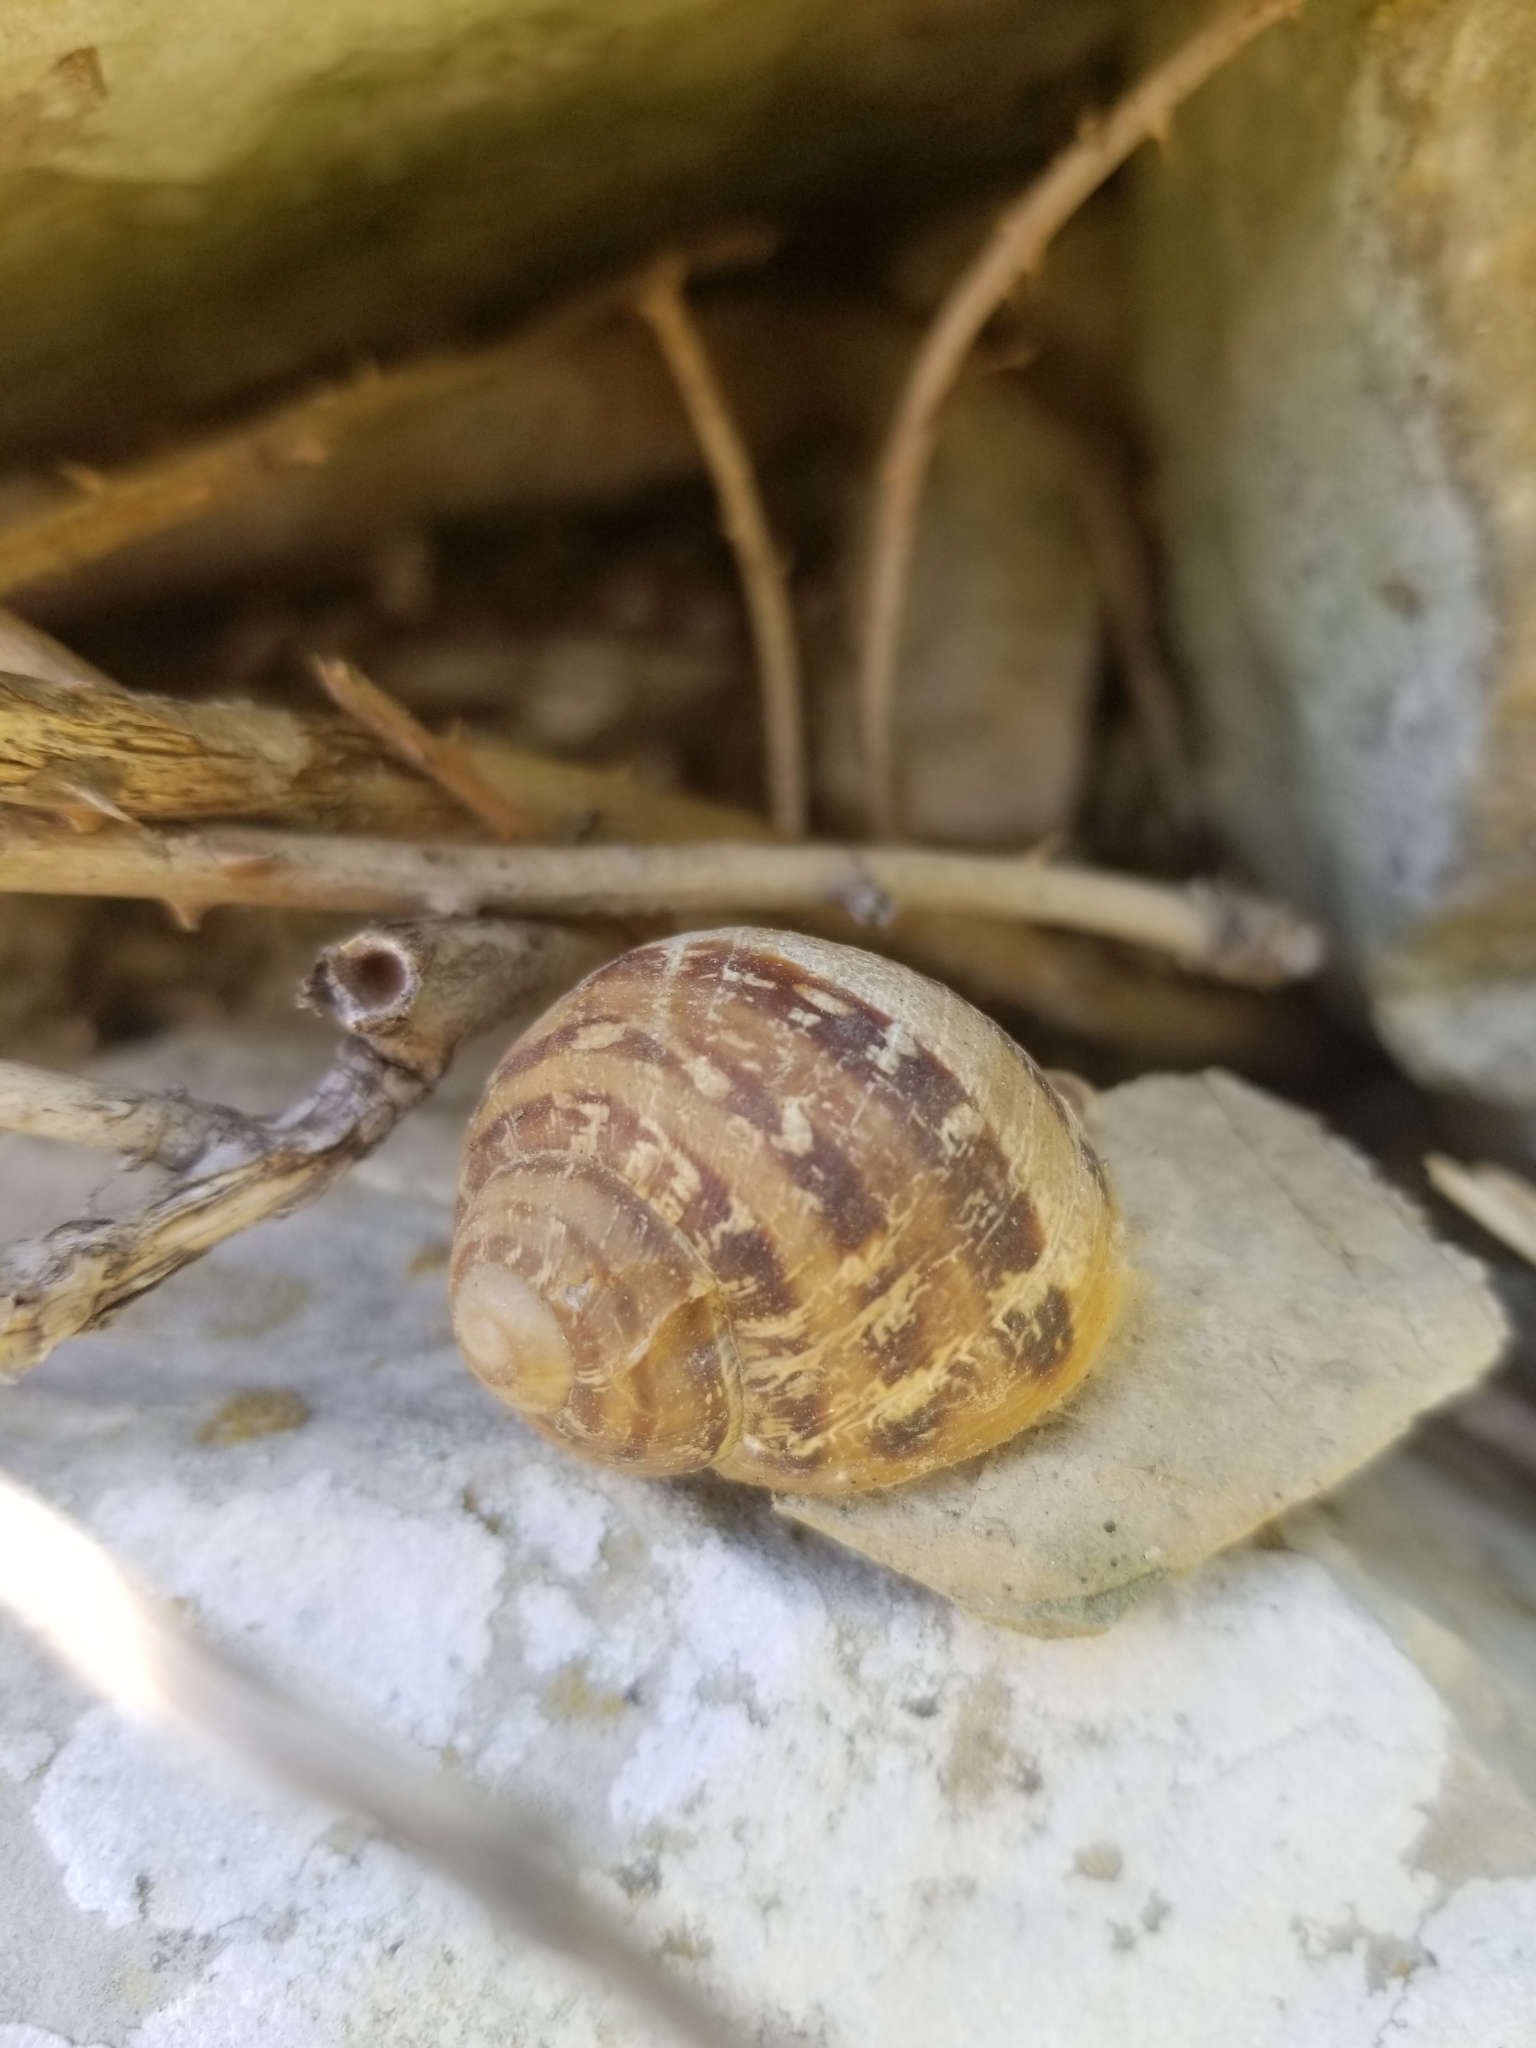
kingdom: Animalia
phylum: Mollusca
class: Gastropoda
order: Stylommatophora
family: Helicidae
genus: Cornu
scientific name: Cornu aspersum
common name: Brown garden snail
